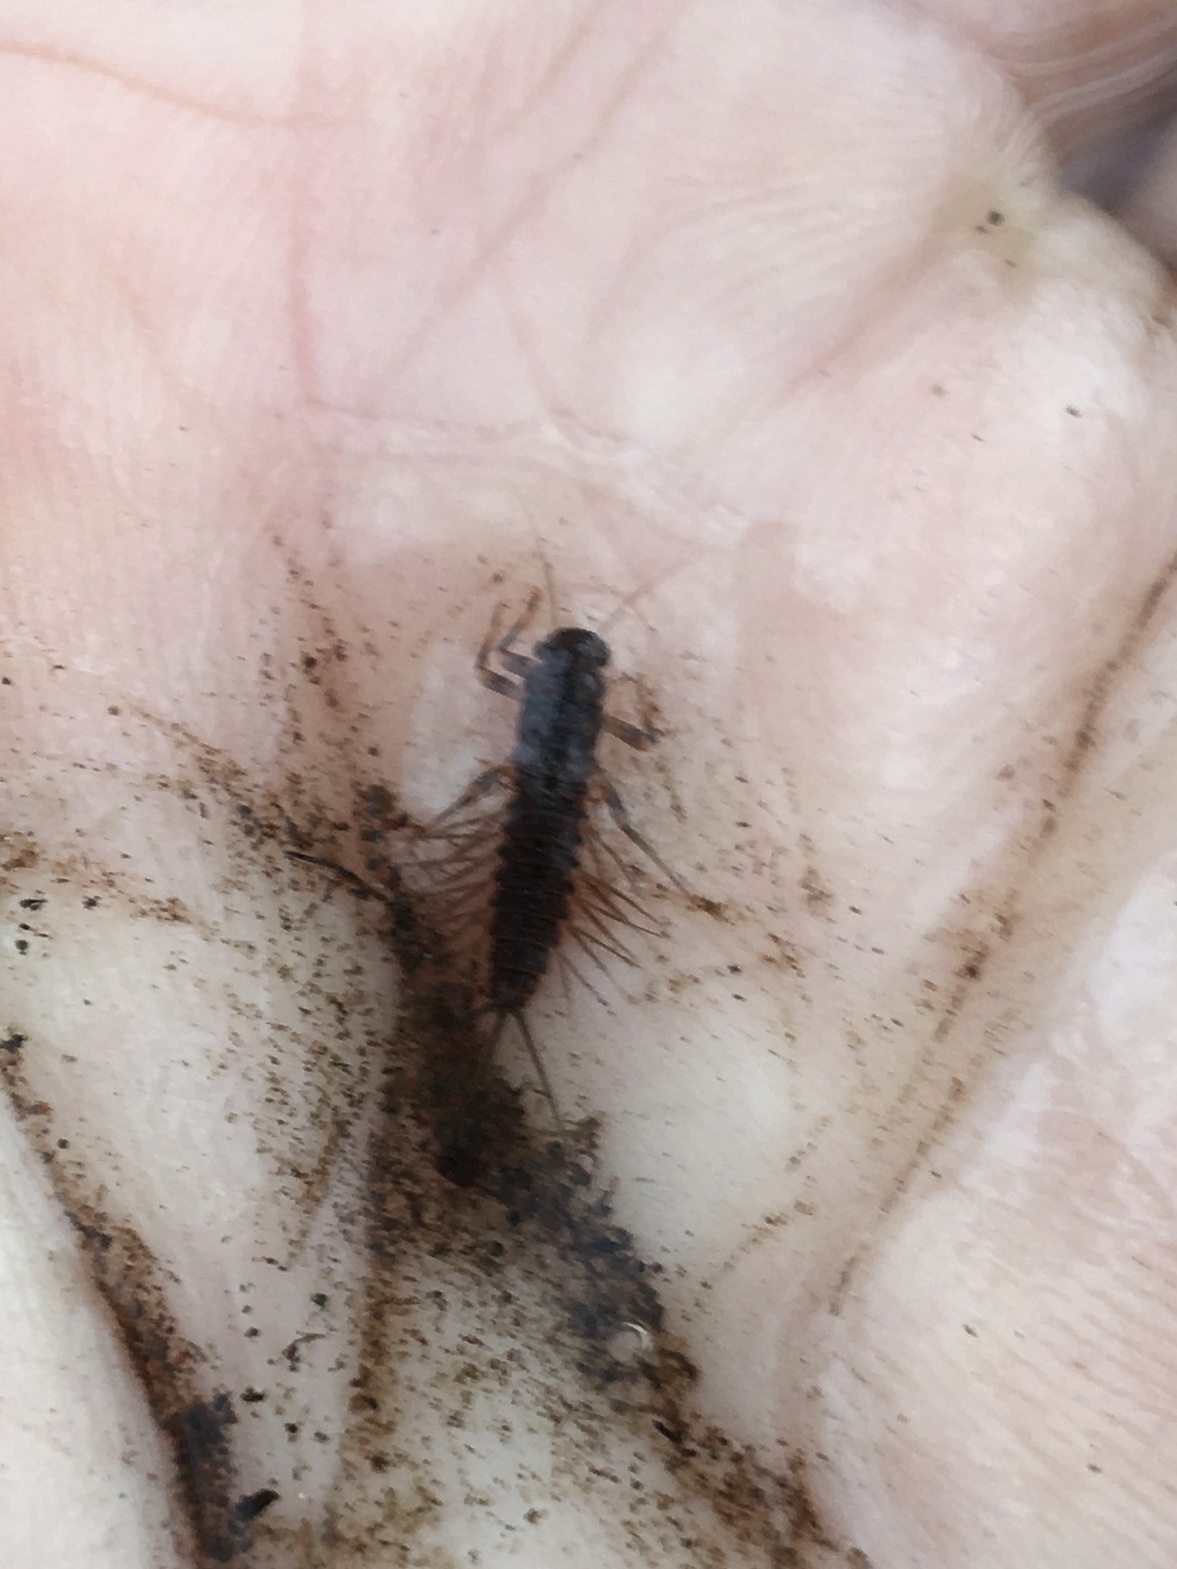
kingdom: Animalia
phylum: Arthropoda
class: Insecta
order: Ephemeroptera
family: Leptophlebiidae
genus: Paraleptophlebia
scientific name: Paraleptophlebia submarginata
